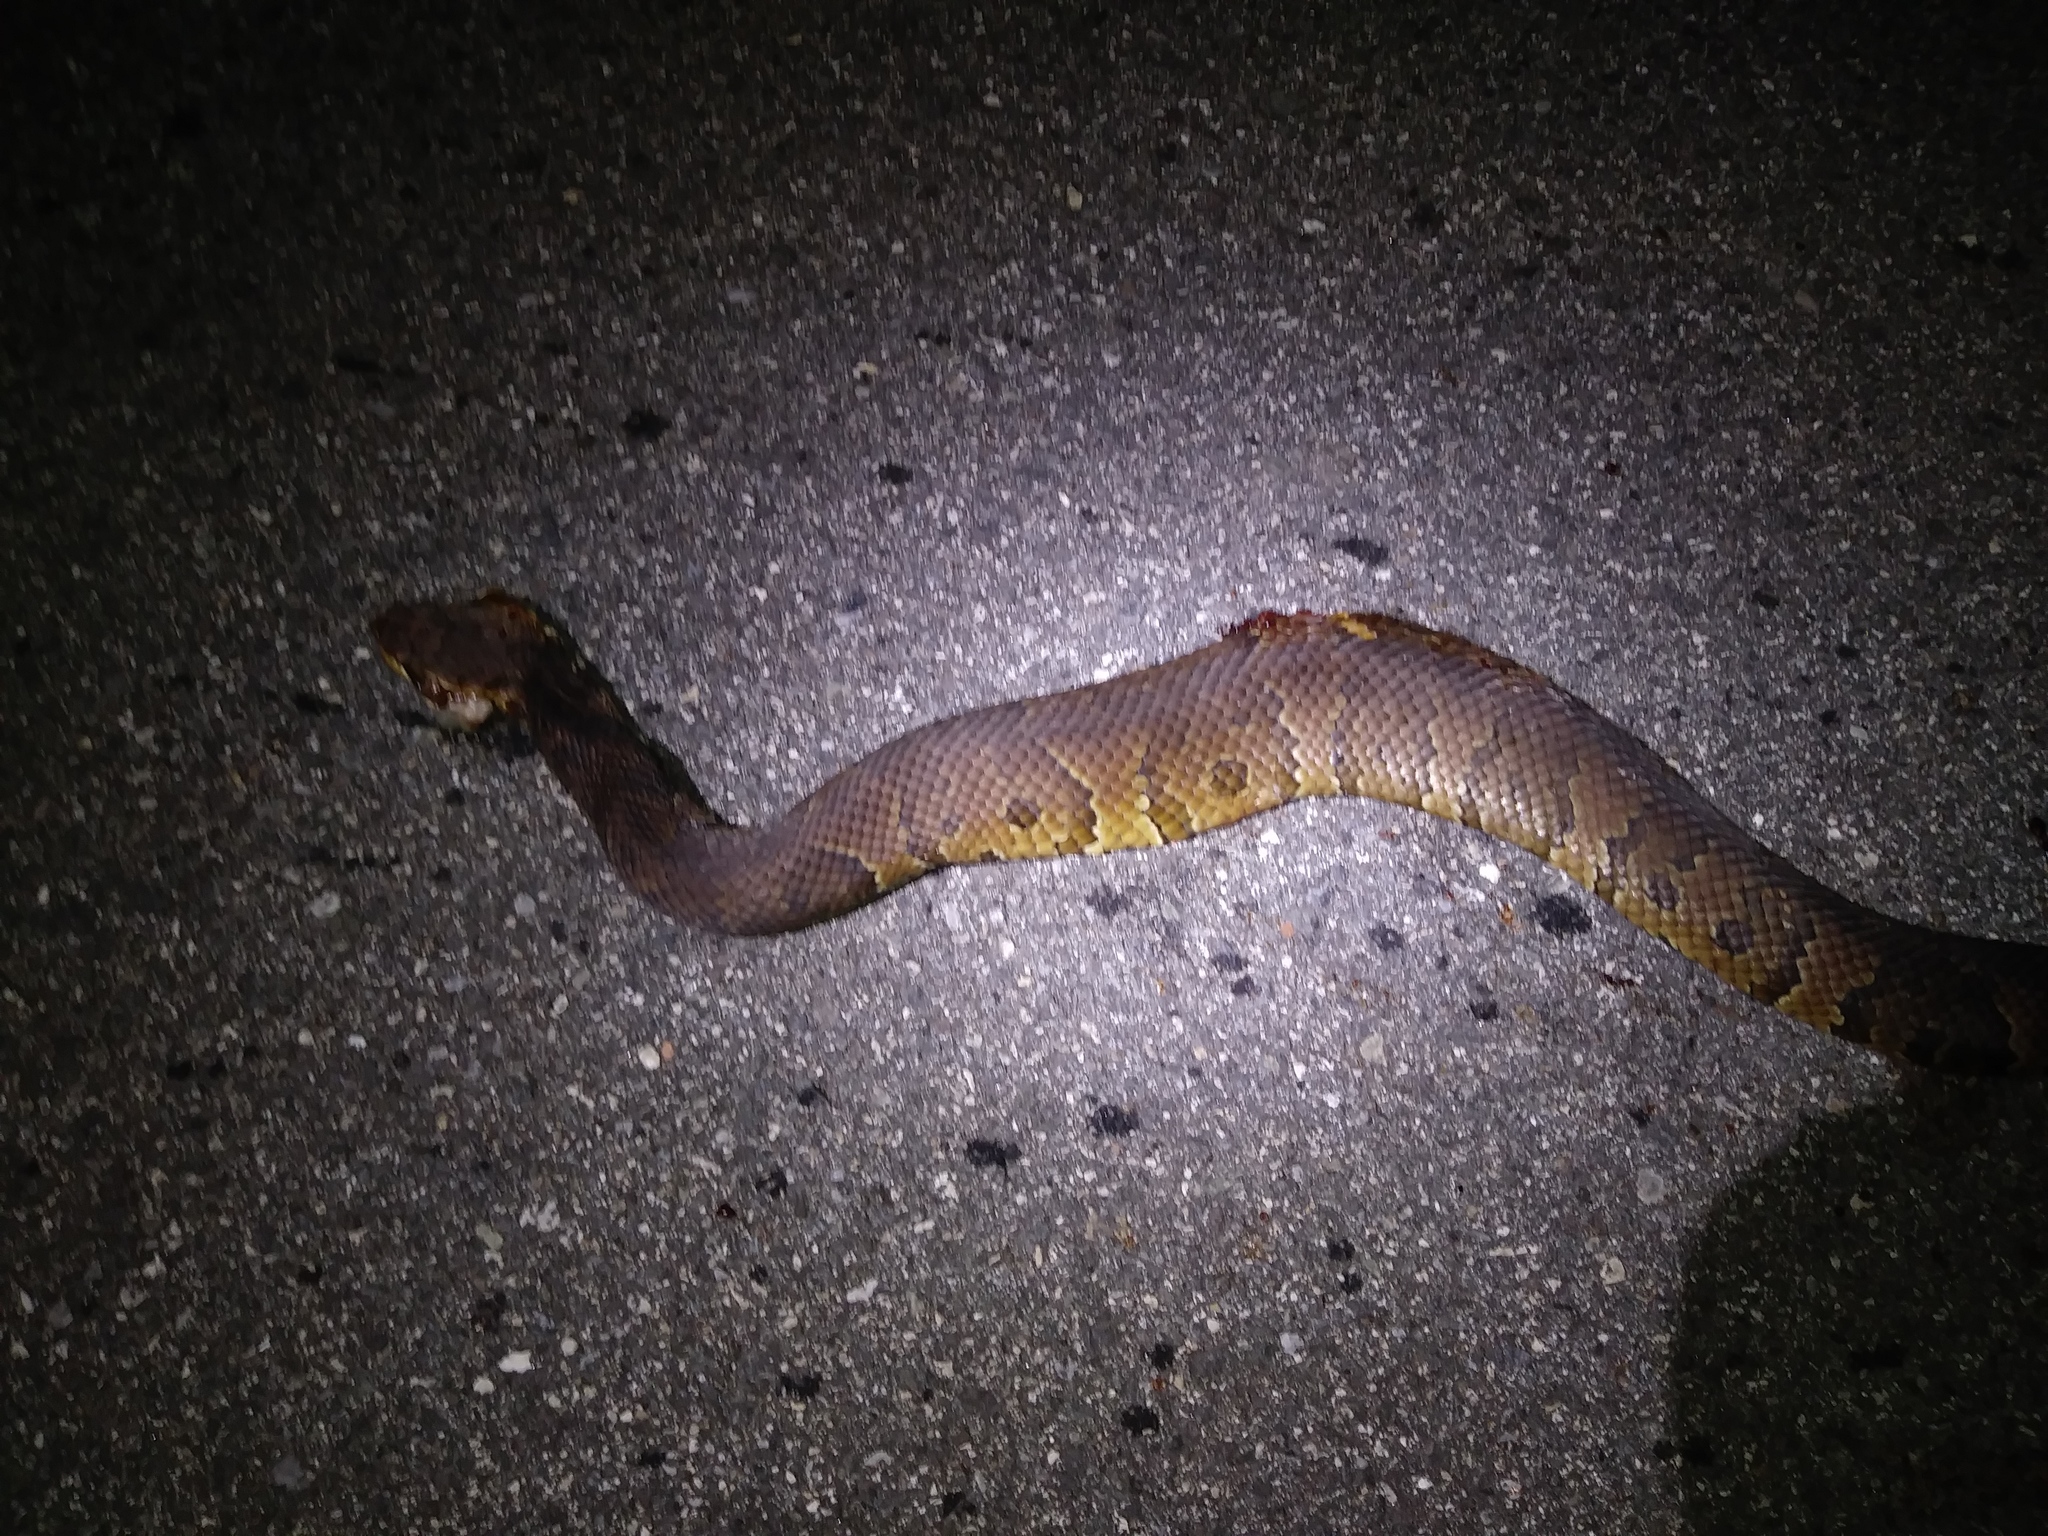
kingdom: Animalia
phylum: Chordata
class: Squamata
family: Viperidae
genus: Agkistrodon
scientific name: Agkistrodon conanti
